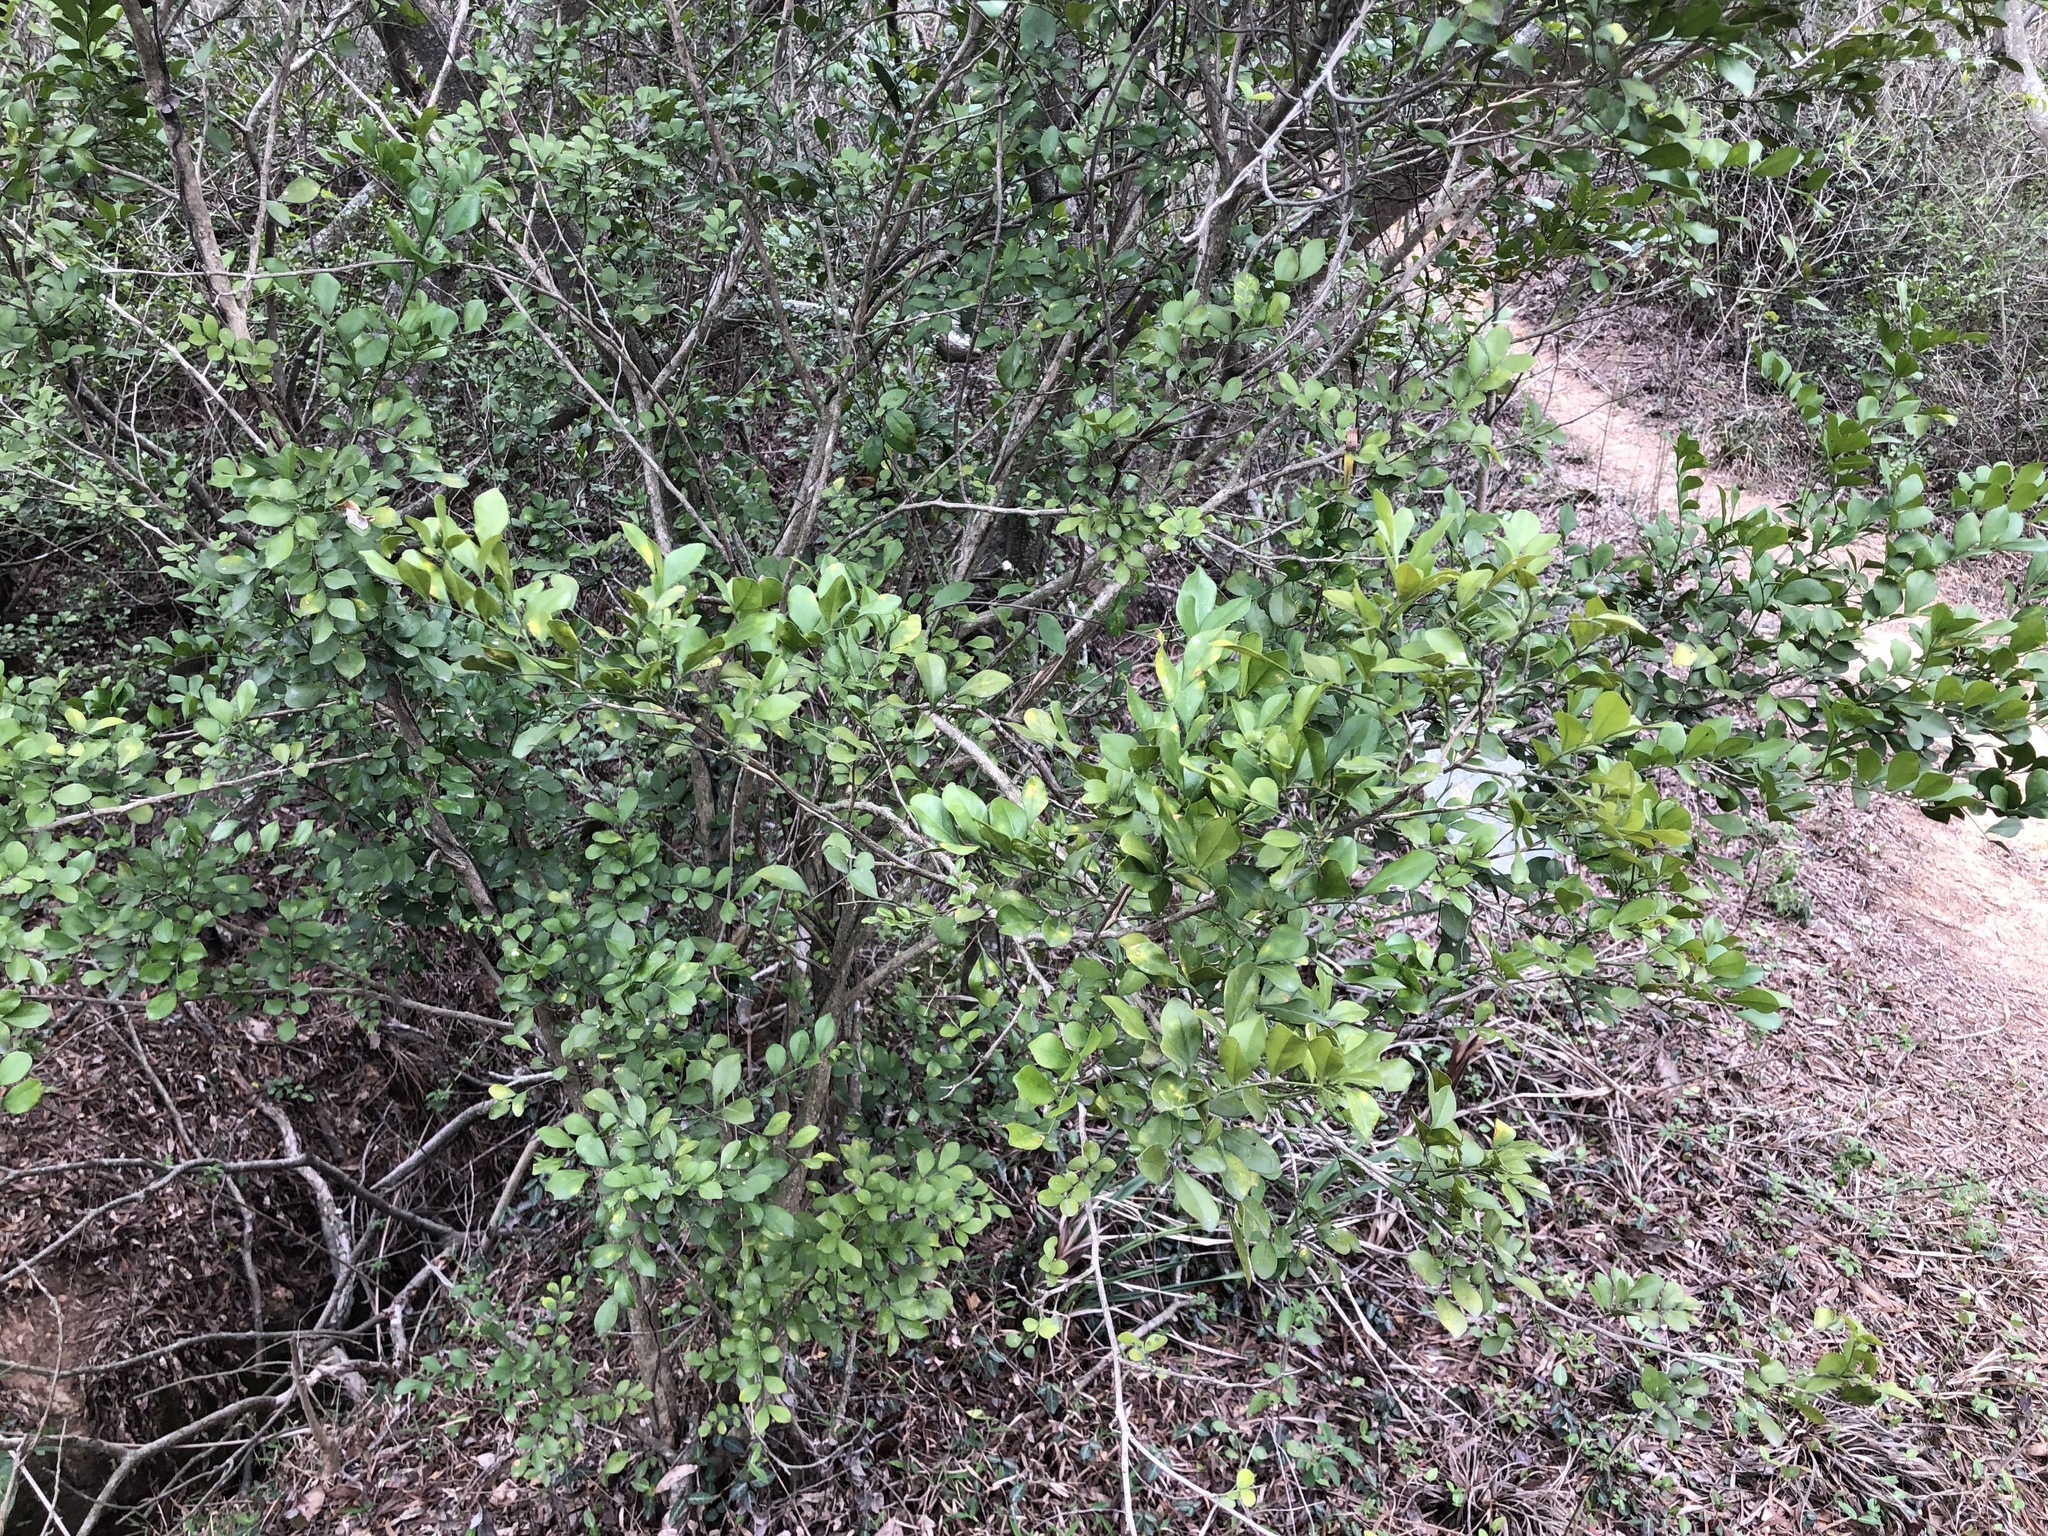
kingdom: Plantae
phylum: Tracheophyta
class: Magnoliopsida
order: Sapindales
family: Rutaceae
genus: Murraya
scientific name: Murraya paniculata
